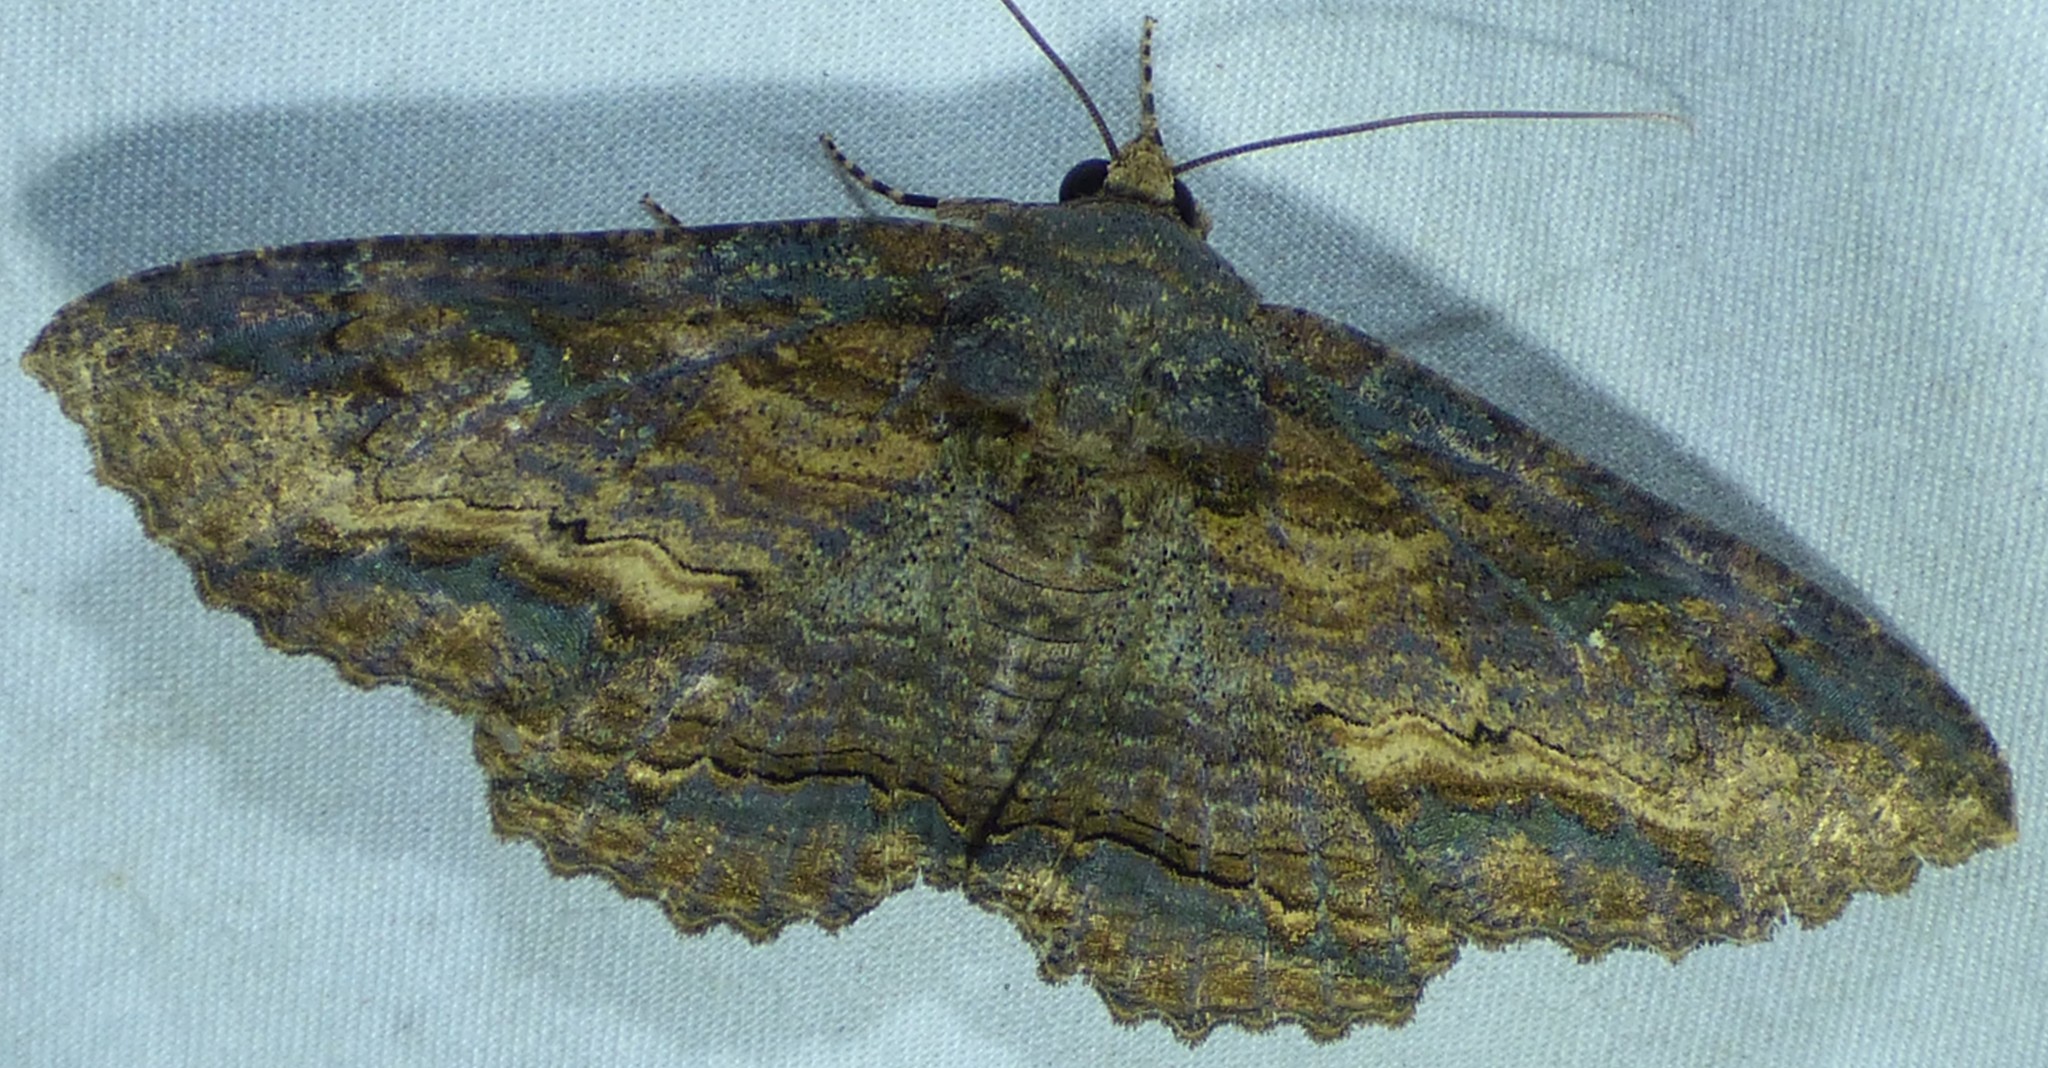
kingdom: Animalia
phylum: Arthropoda
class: Insecta
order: Lepidoptera
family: Erebidae
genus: Zale
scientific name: Zale lunata
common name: Lunate zale moth
